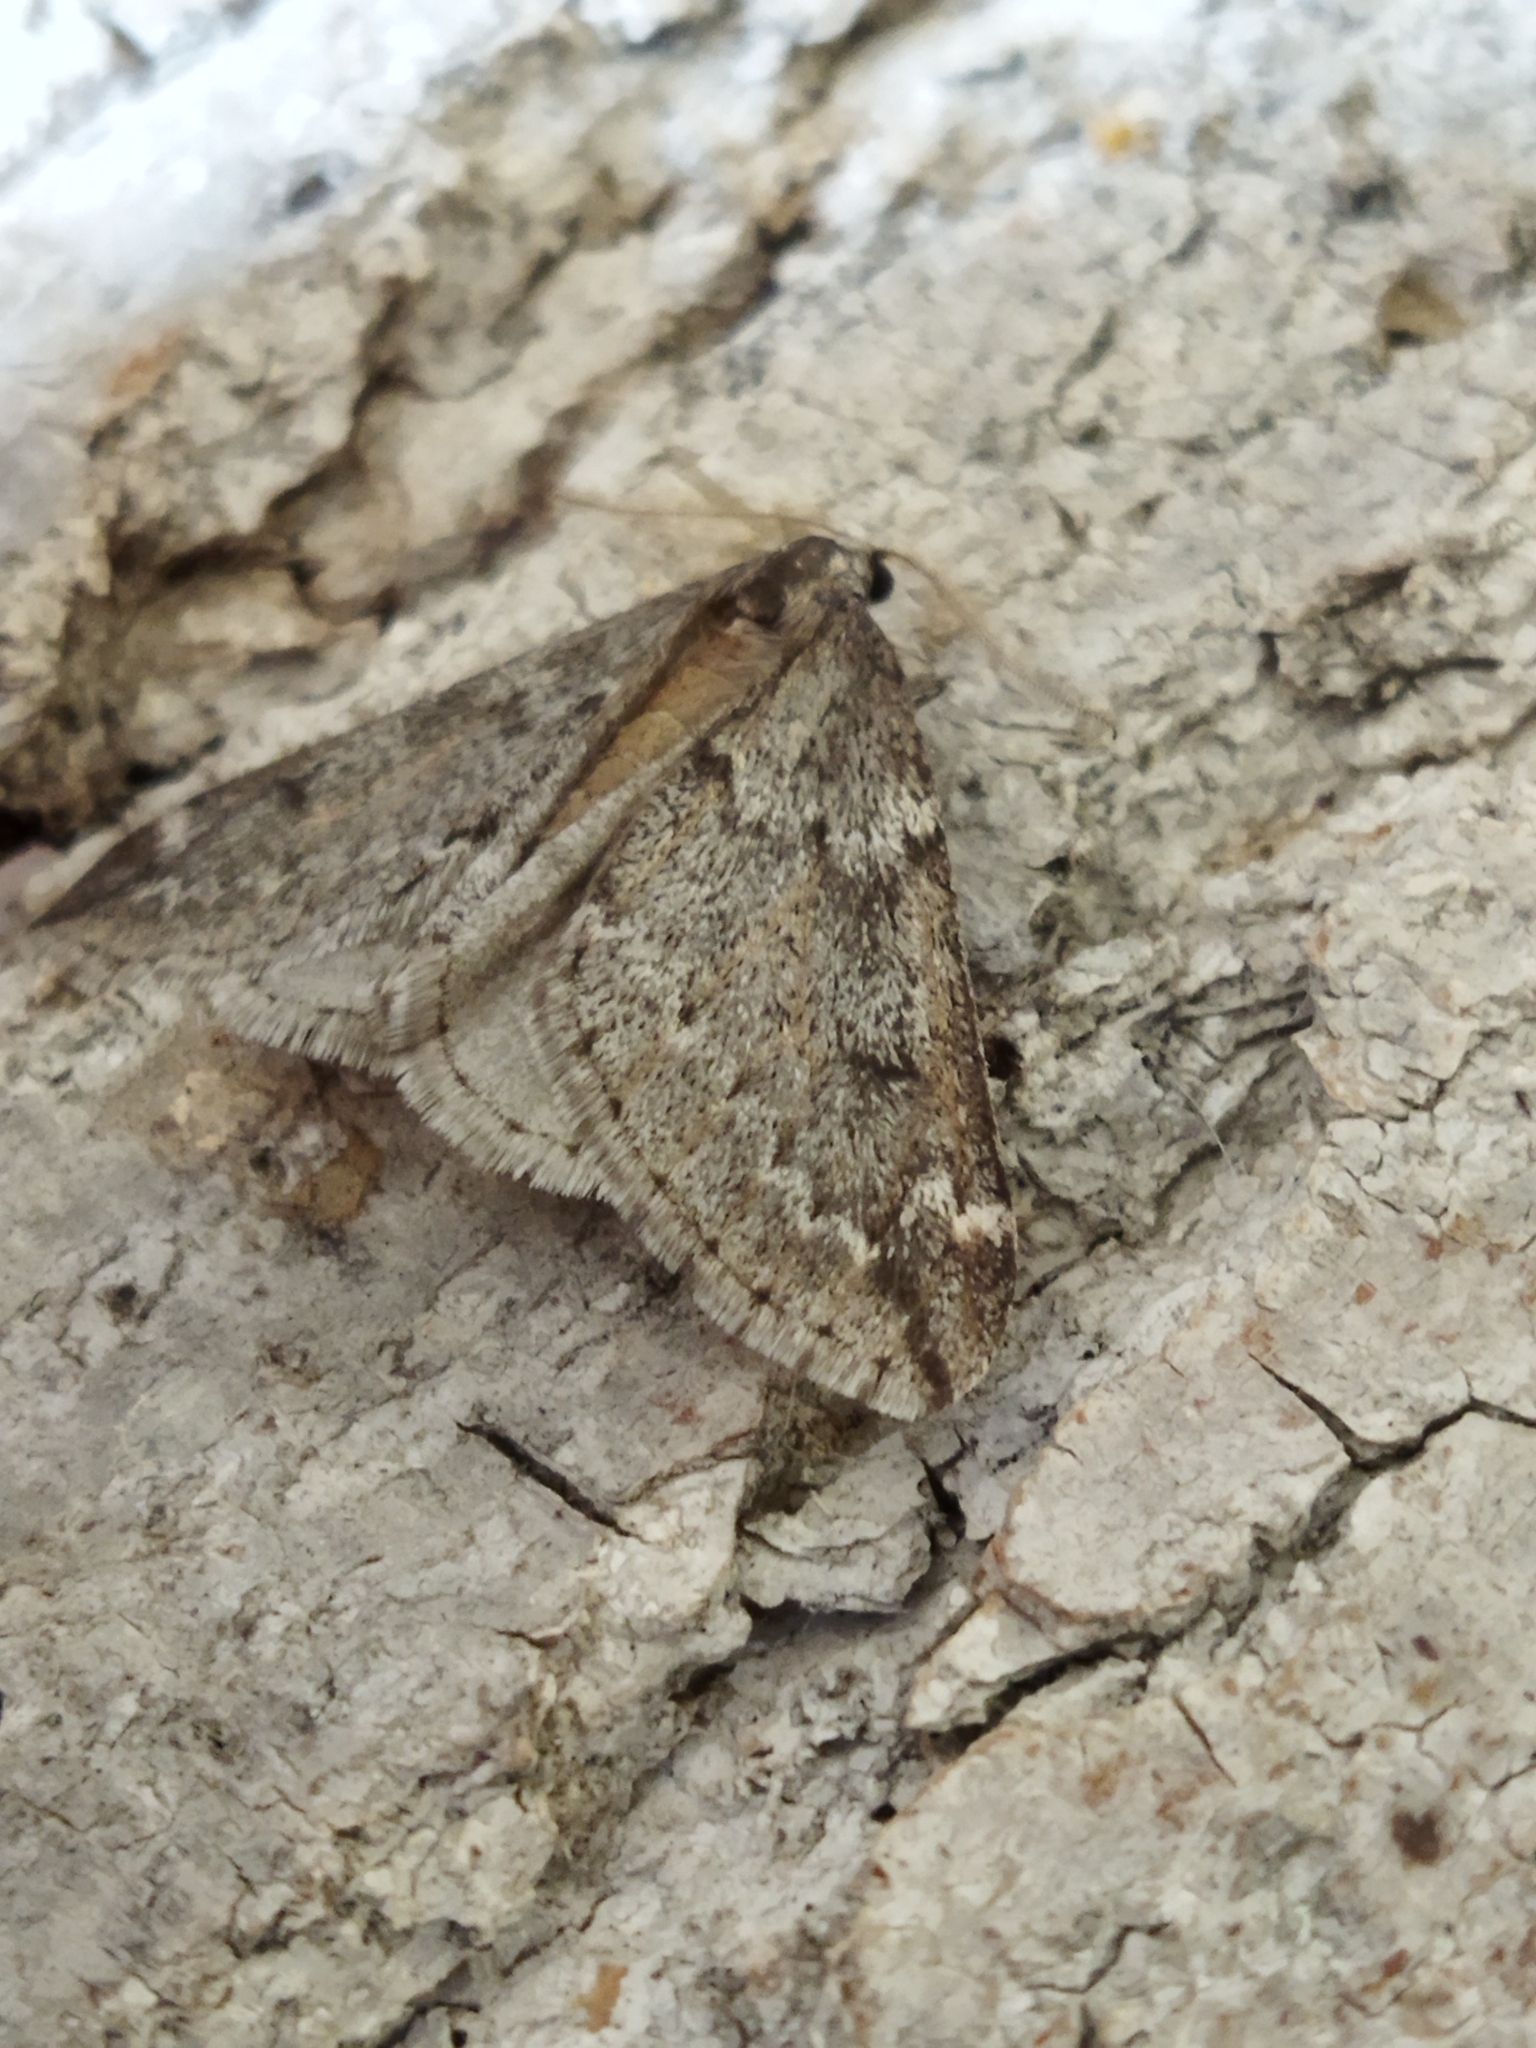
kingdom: Animalia
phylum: Arthropoda
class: Insecta
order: Lepidoptera
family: Geometridae
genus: Alsophila
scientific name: Alsophila aescularia
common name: March moth
